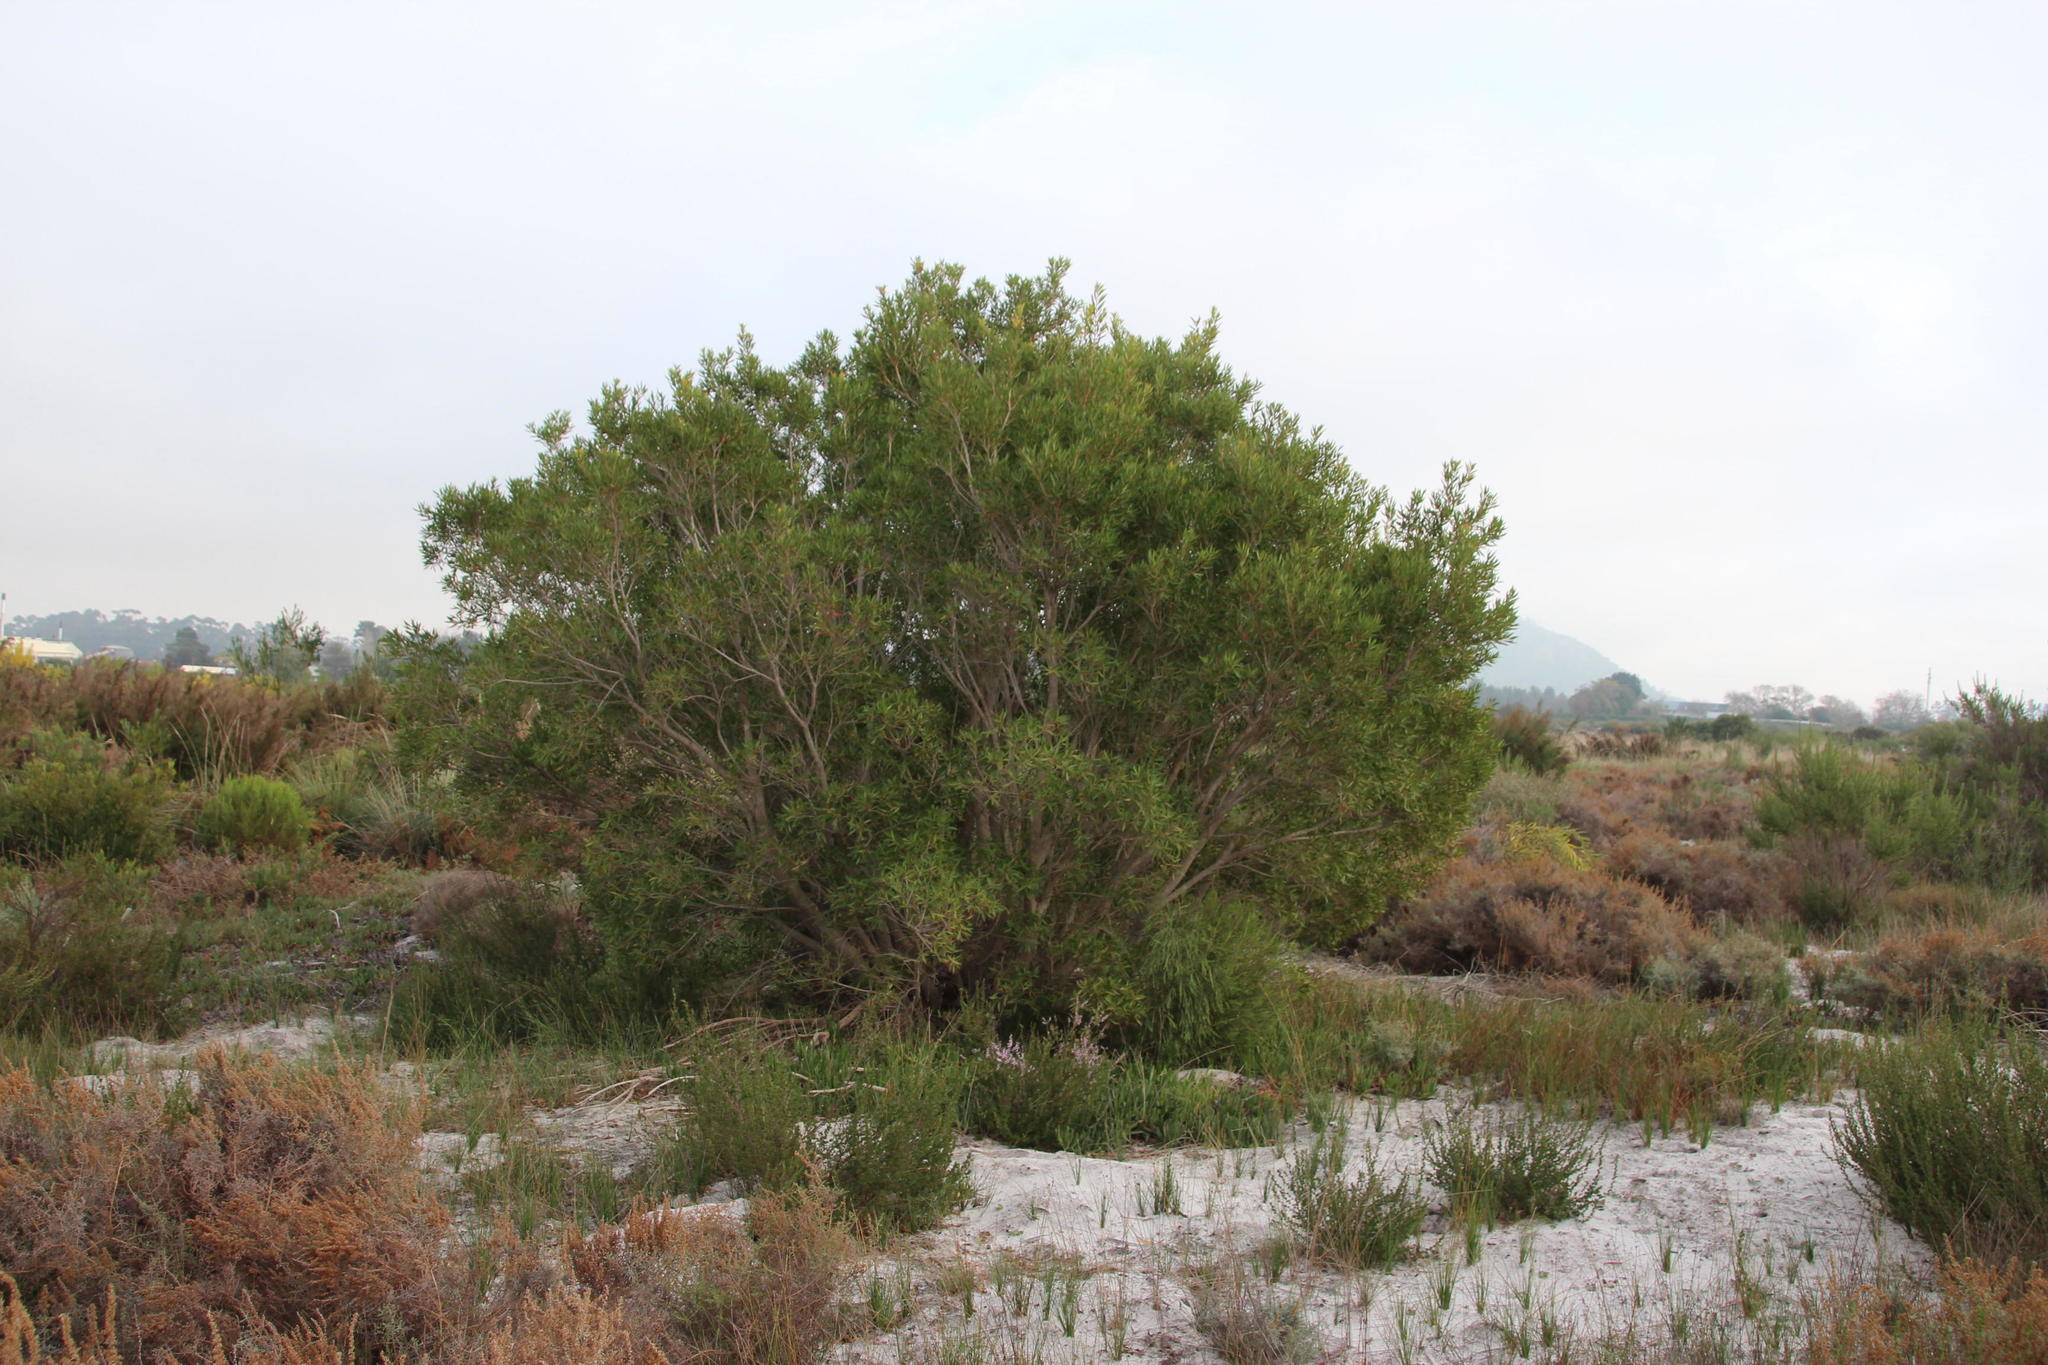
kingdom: Plantae
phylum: Tracheophyta
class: Magnoliopsida
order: Myrtales
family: Myrtaceae
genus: Callistemon
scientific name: Callistemon lanceolatus
